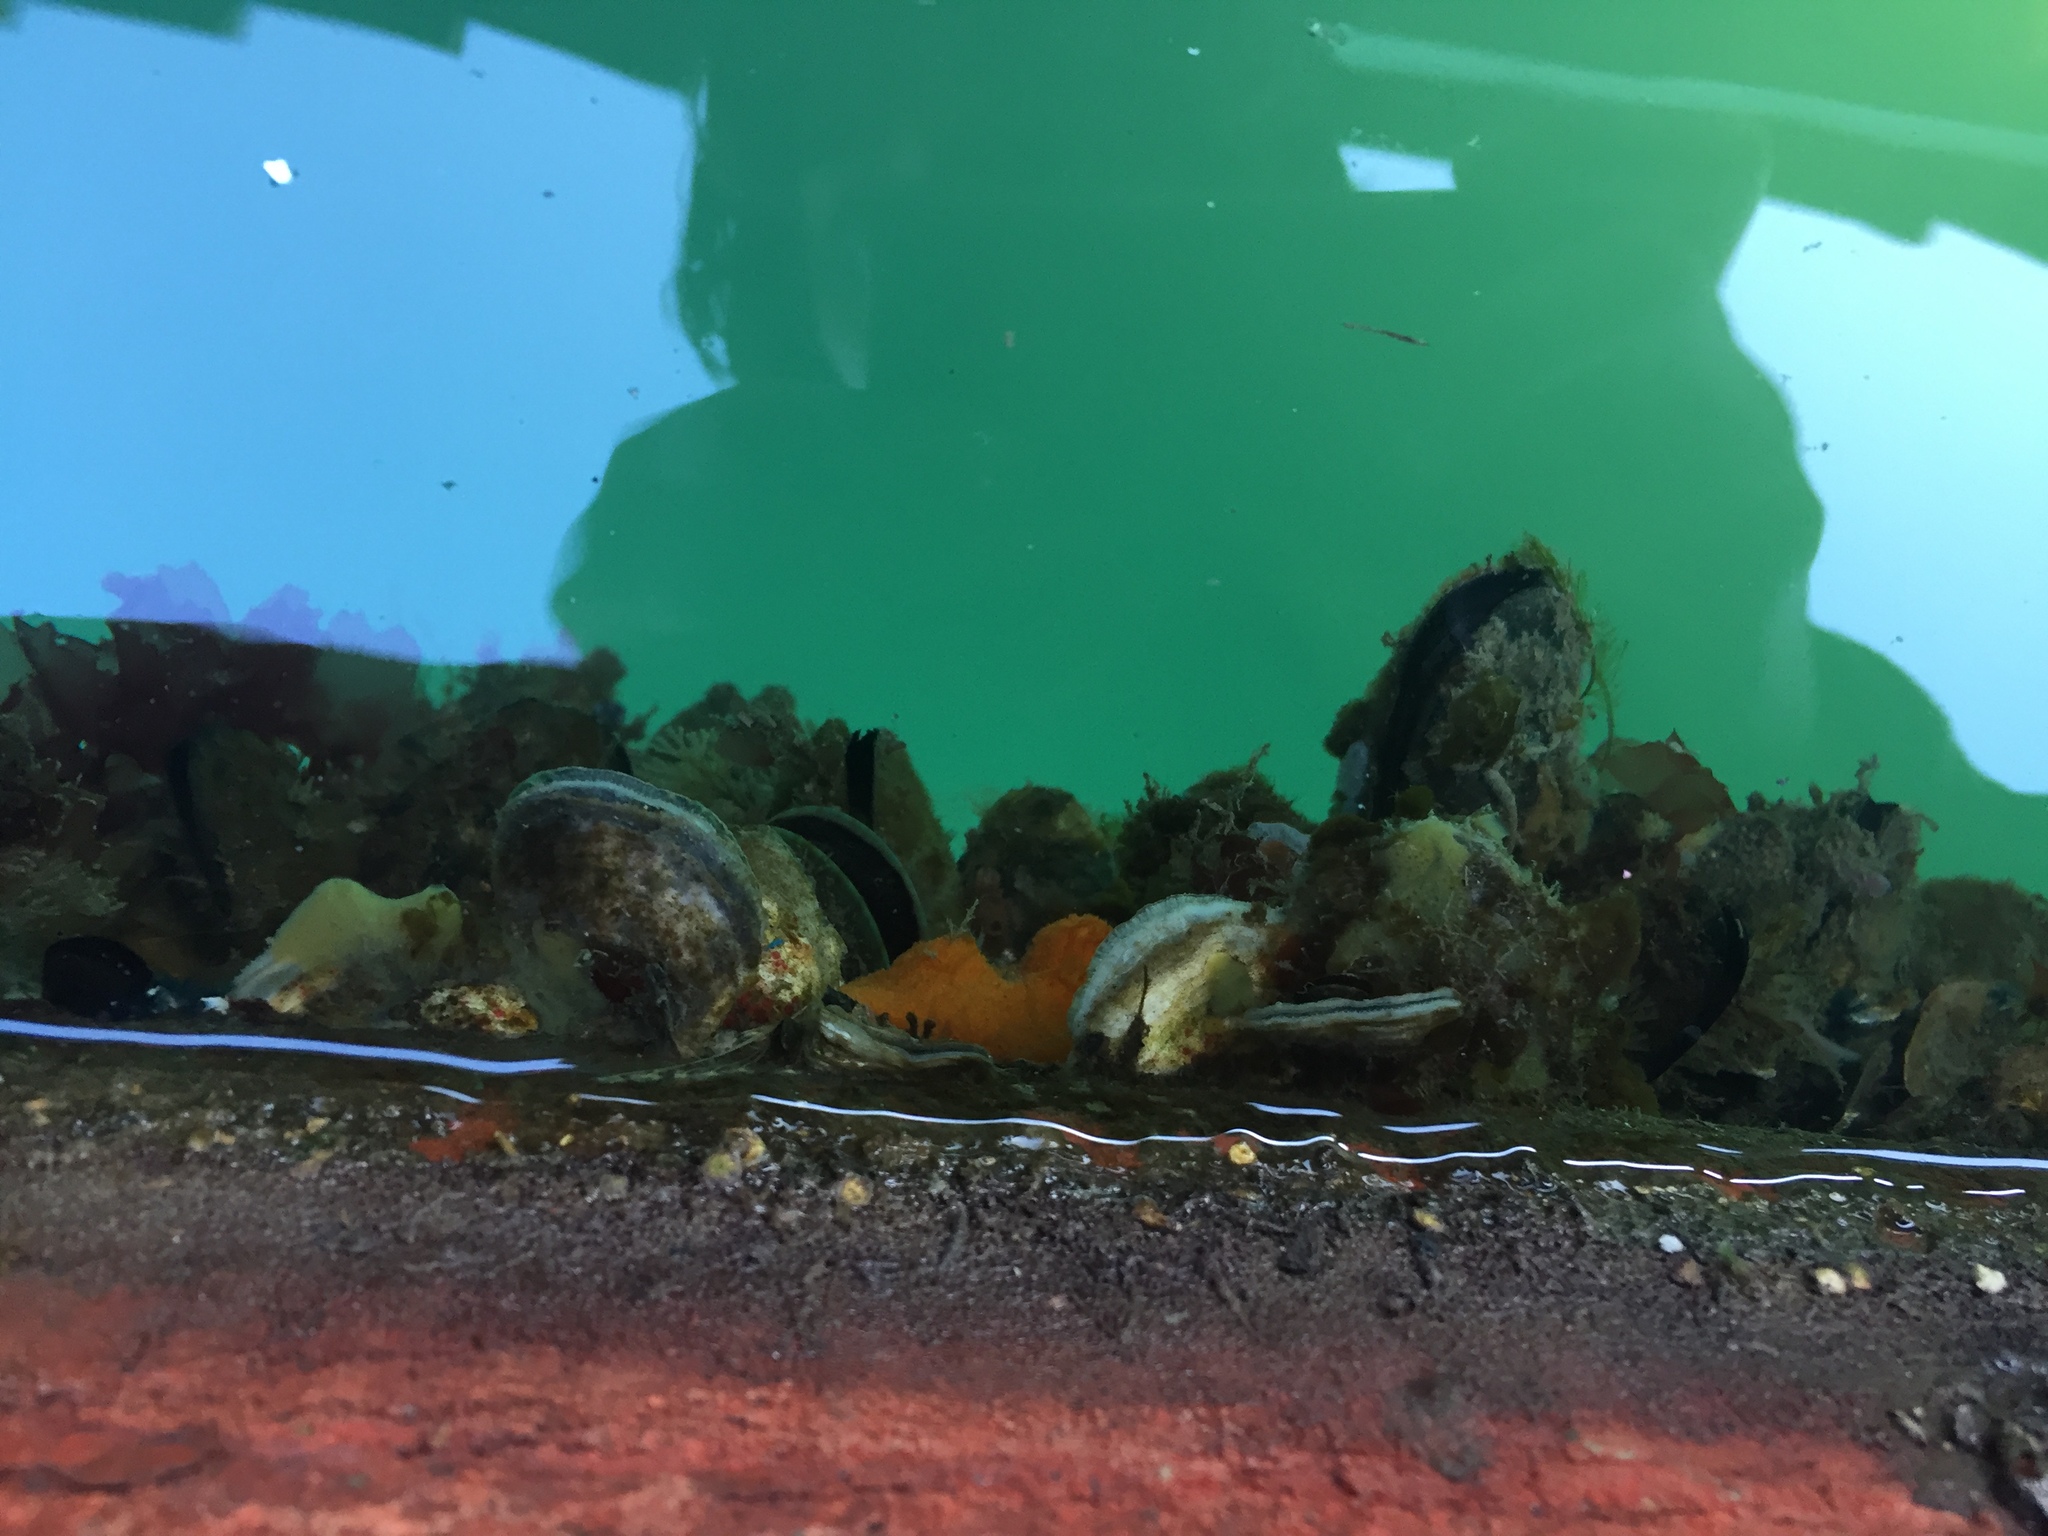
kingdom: Animalia
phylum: Mollusca
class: Bivalvia
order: Ostreida
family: Ostreidae
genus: Ostrea
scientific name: Ostrea chilensis
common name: Chilean oyster
